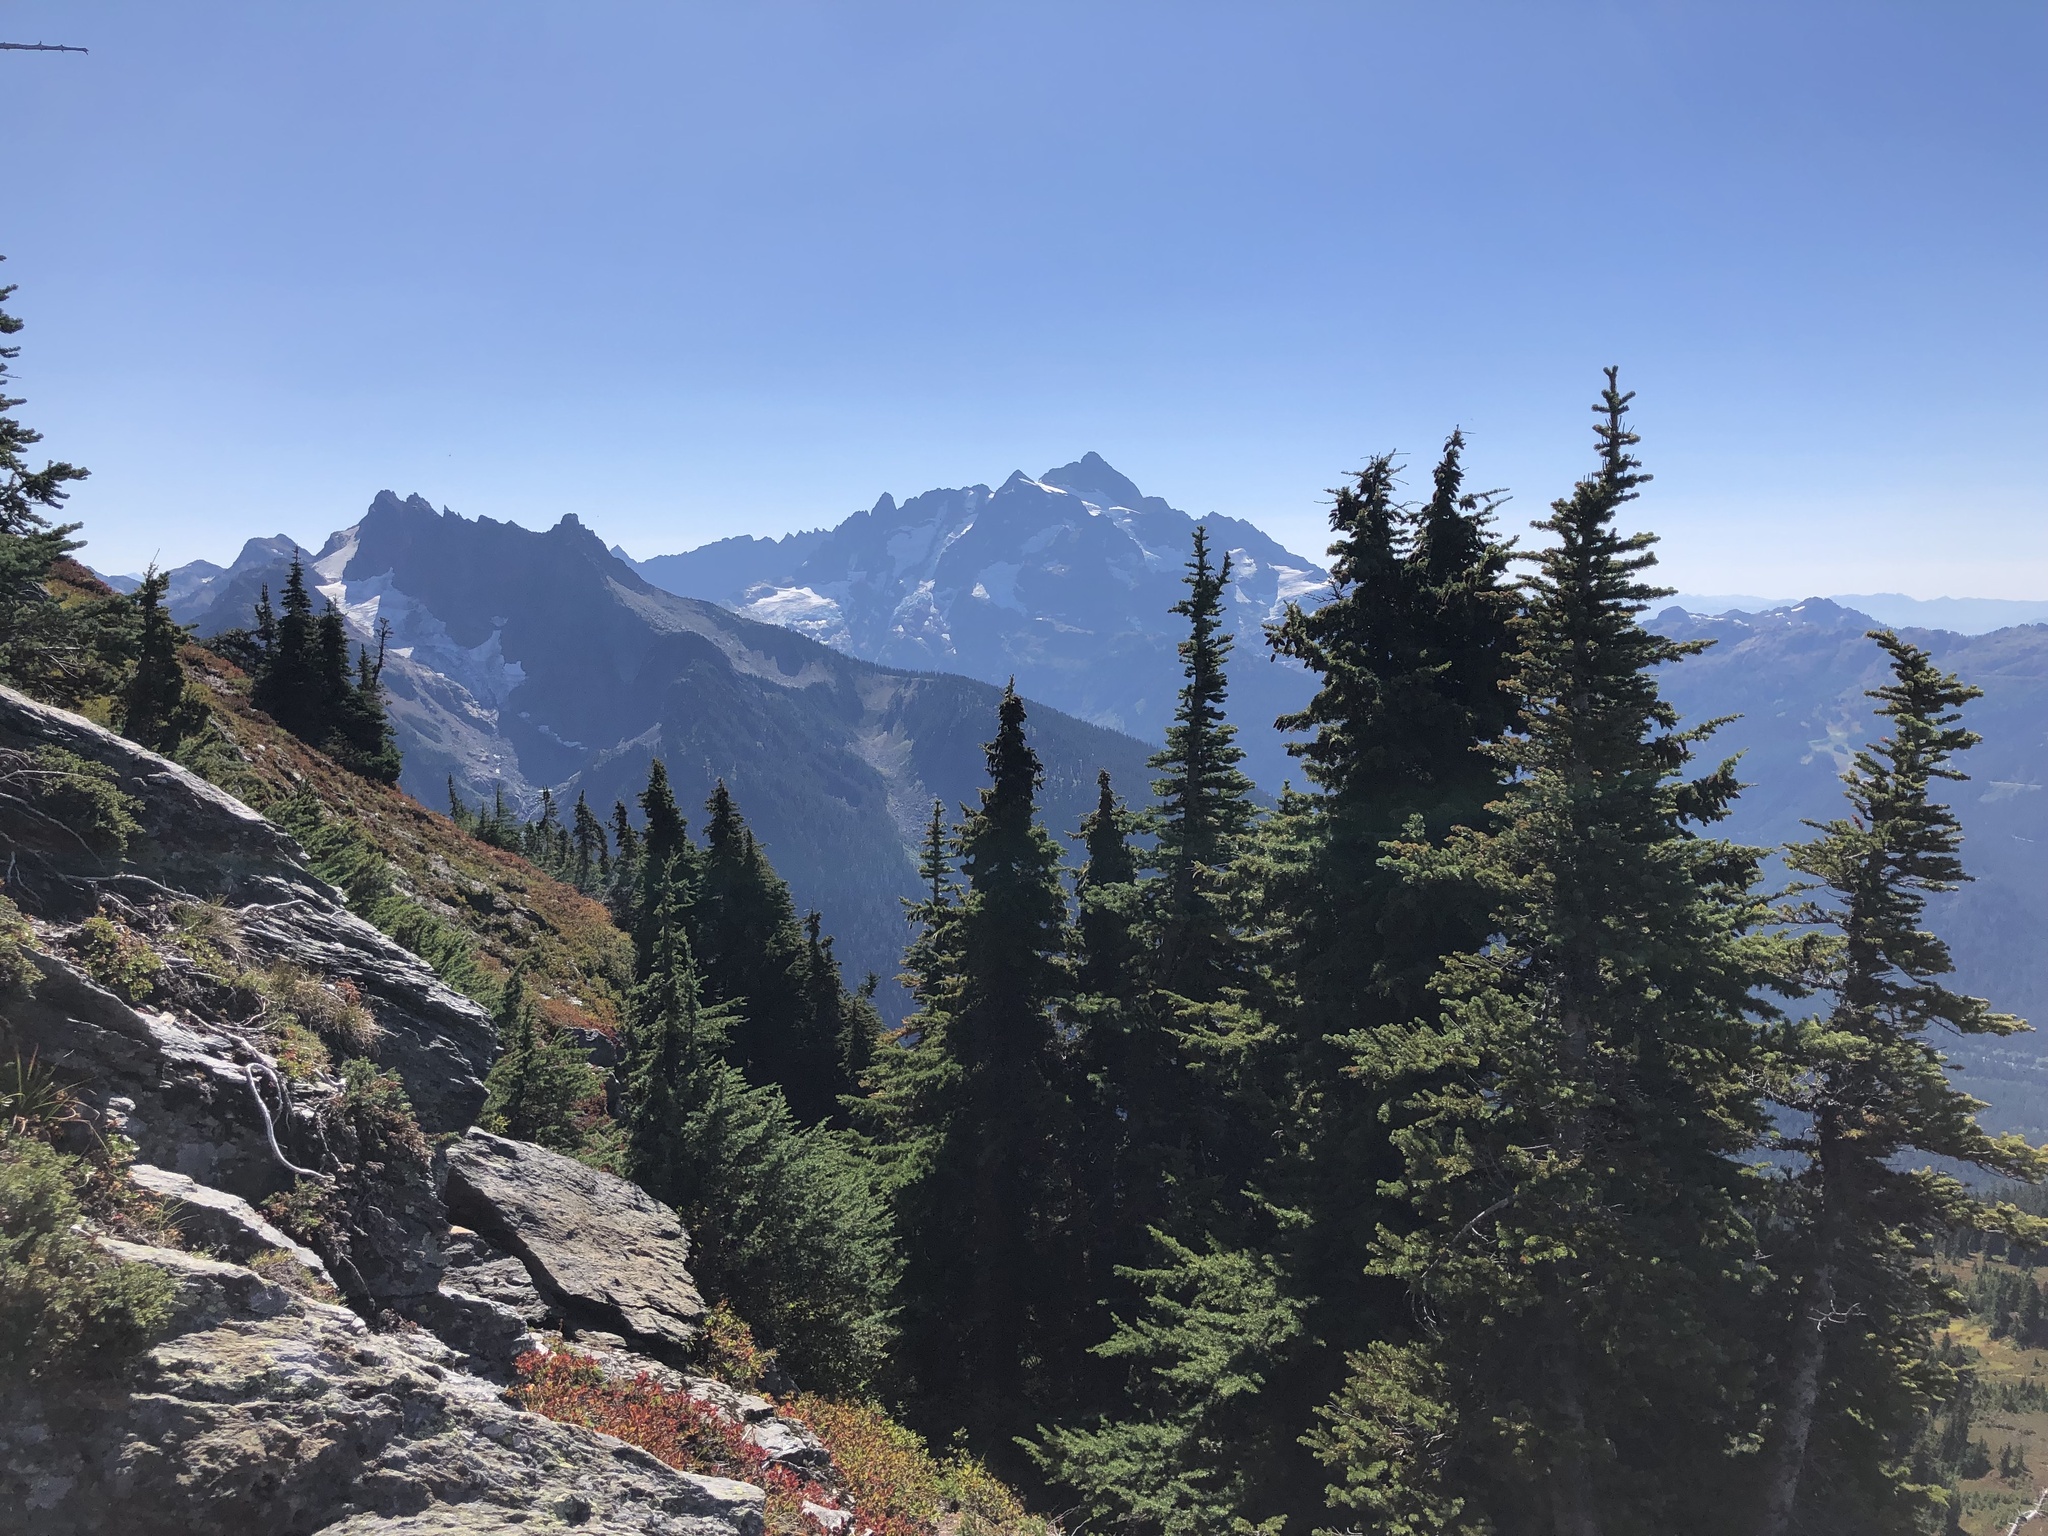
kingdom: Plantae
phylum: Tracheophyta
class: Pinopsida
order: Pinales
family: Pinaceae
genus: Tsuga
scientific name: Tsuga mertensiana
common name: Mountain hemlock
